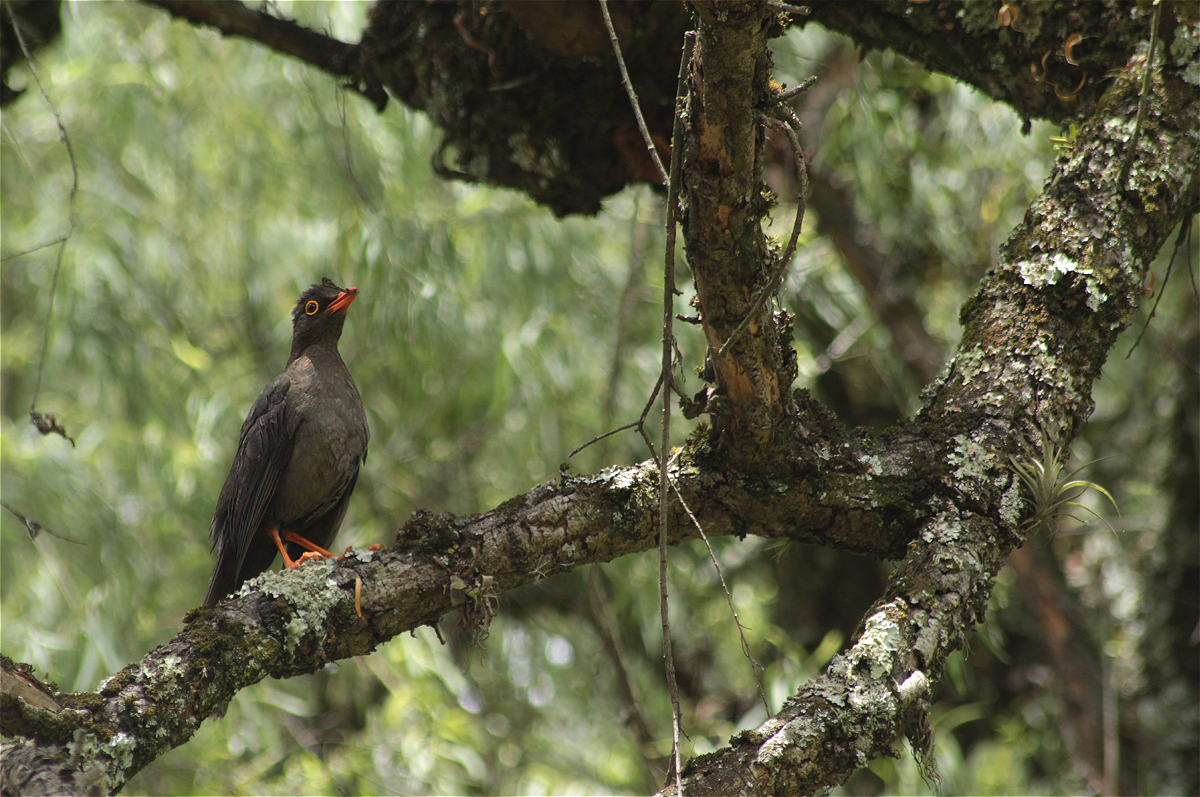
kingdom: Animalia
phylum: Chordata
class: Aves
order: Passeriformes
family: Turdidae
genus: Turdus
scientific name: Turdus fuscater
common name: Great thrush
